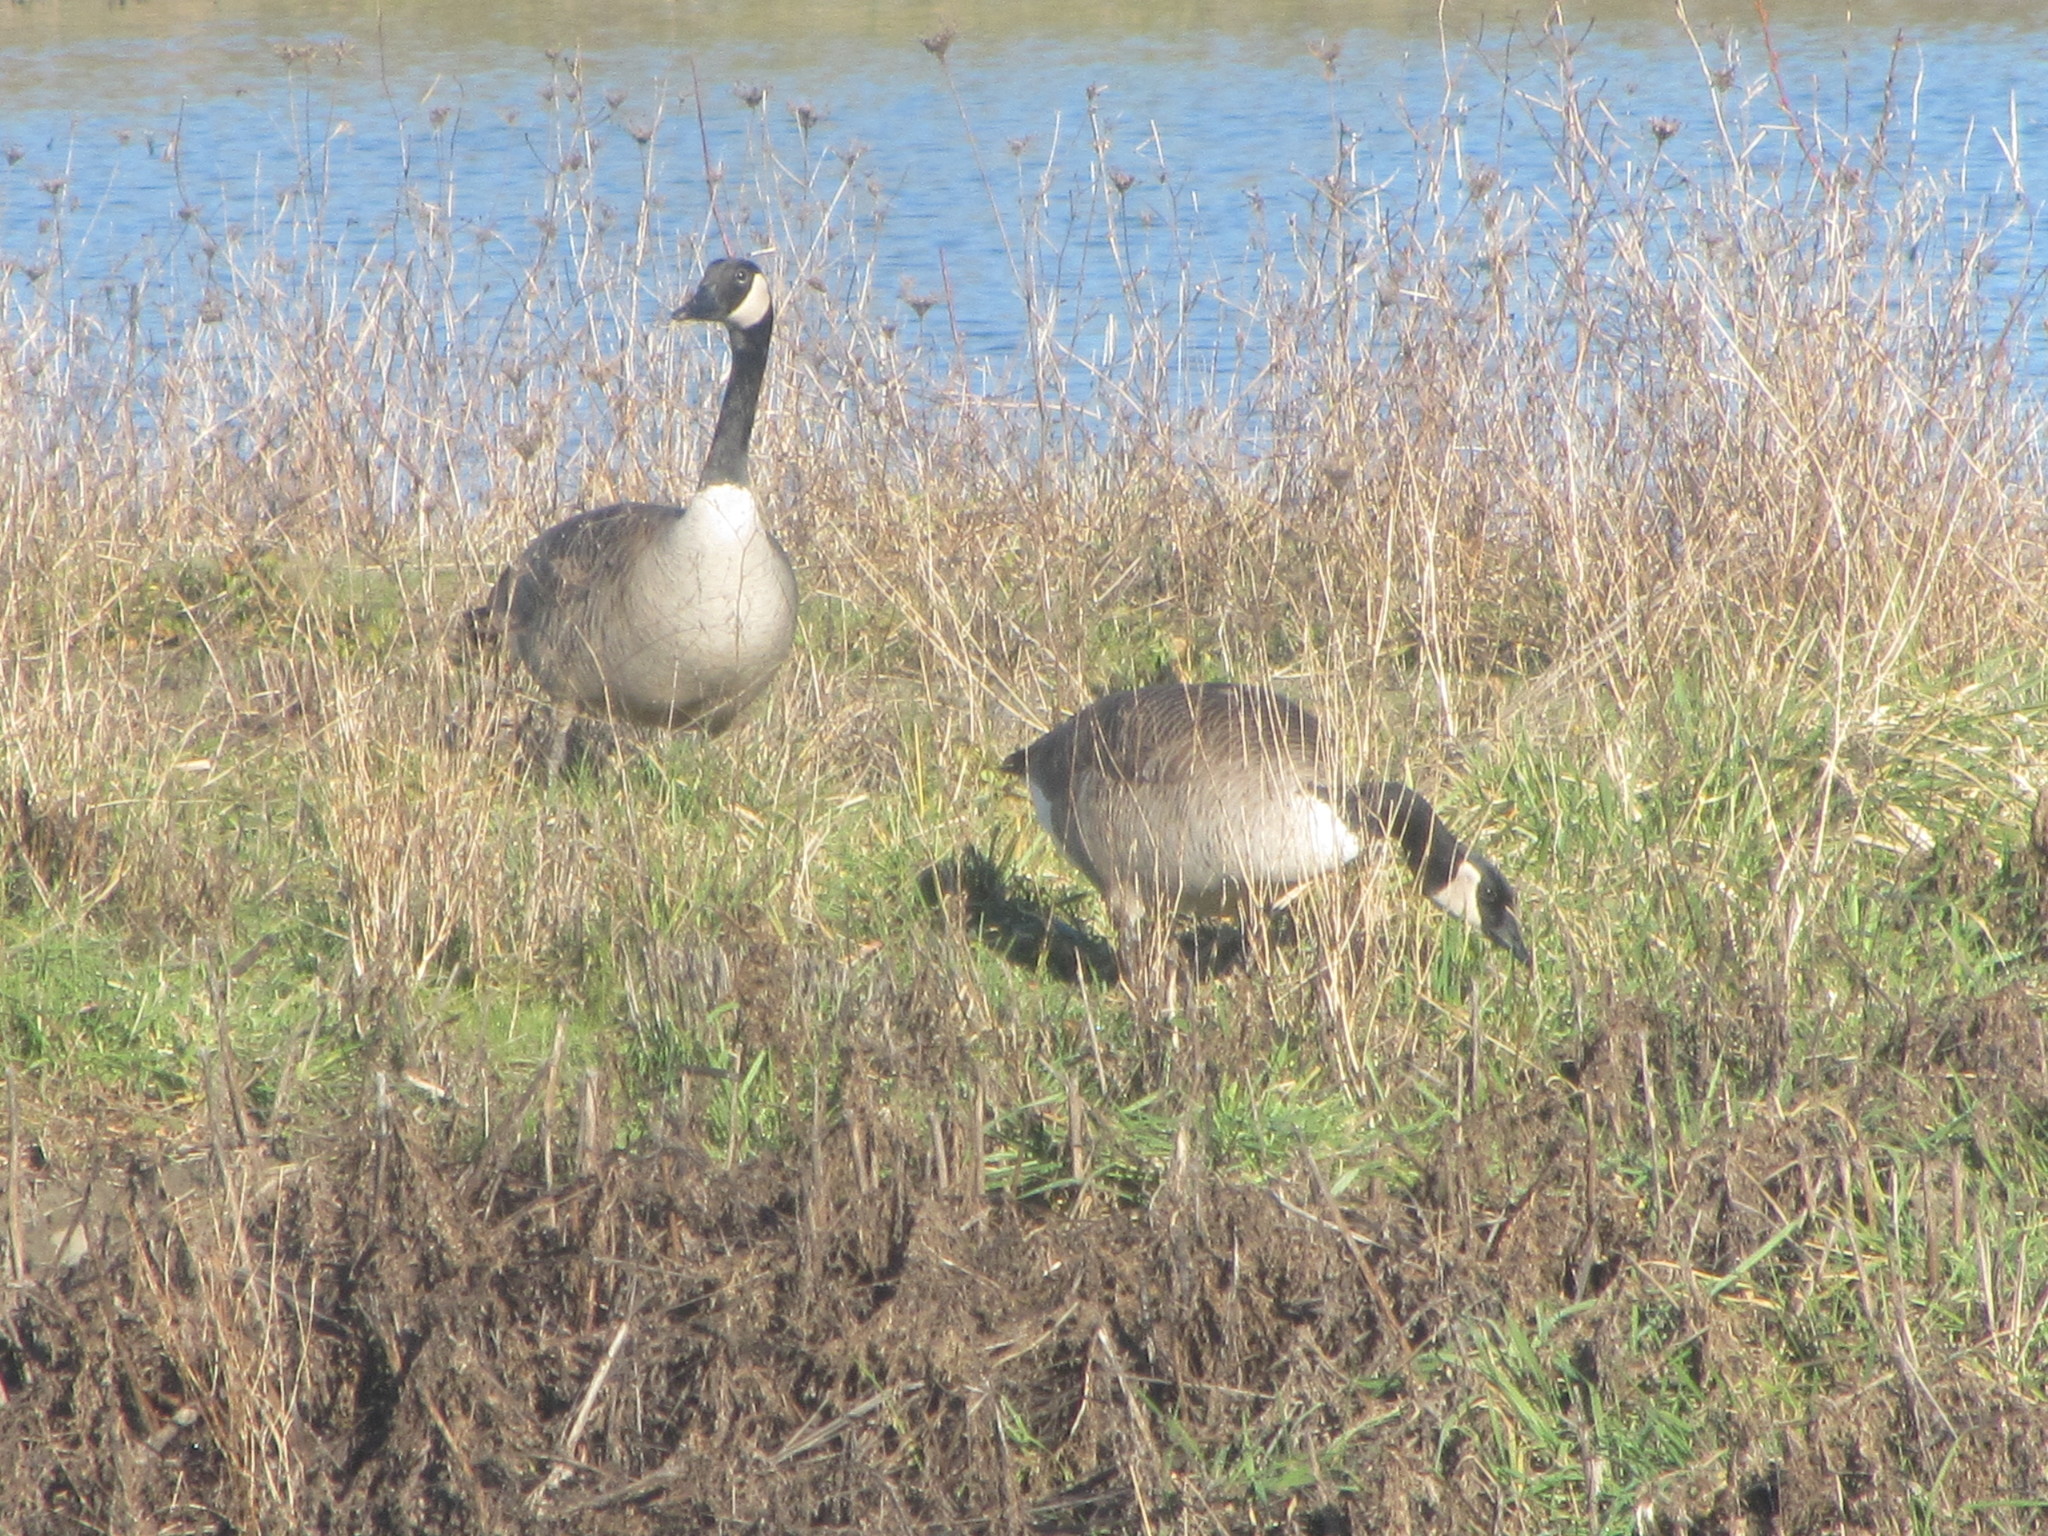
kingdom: Animalia
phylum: Chordata
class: Aves
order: Anseriformes
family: Anatidae
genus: Branta
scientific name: Branta canadensis
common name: Canada goose
